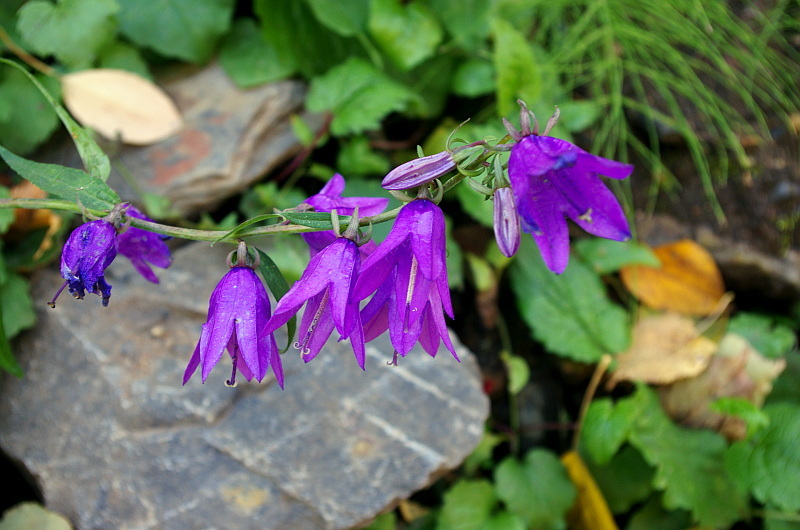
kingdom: Plantae
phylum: Tracheophyta
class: Magnoliopsida
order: Asterales
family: Campanulaceae
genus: Campanula
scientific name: Campanula rapunculoides
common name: Creeping bellflower
